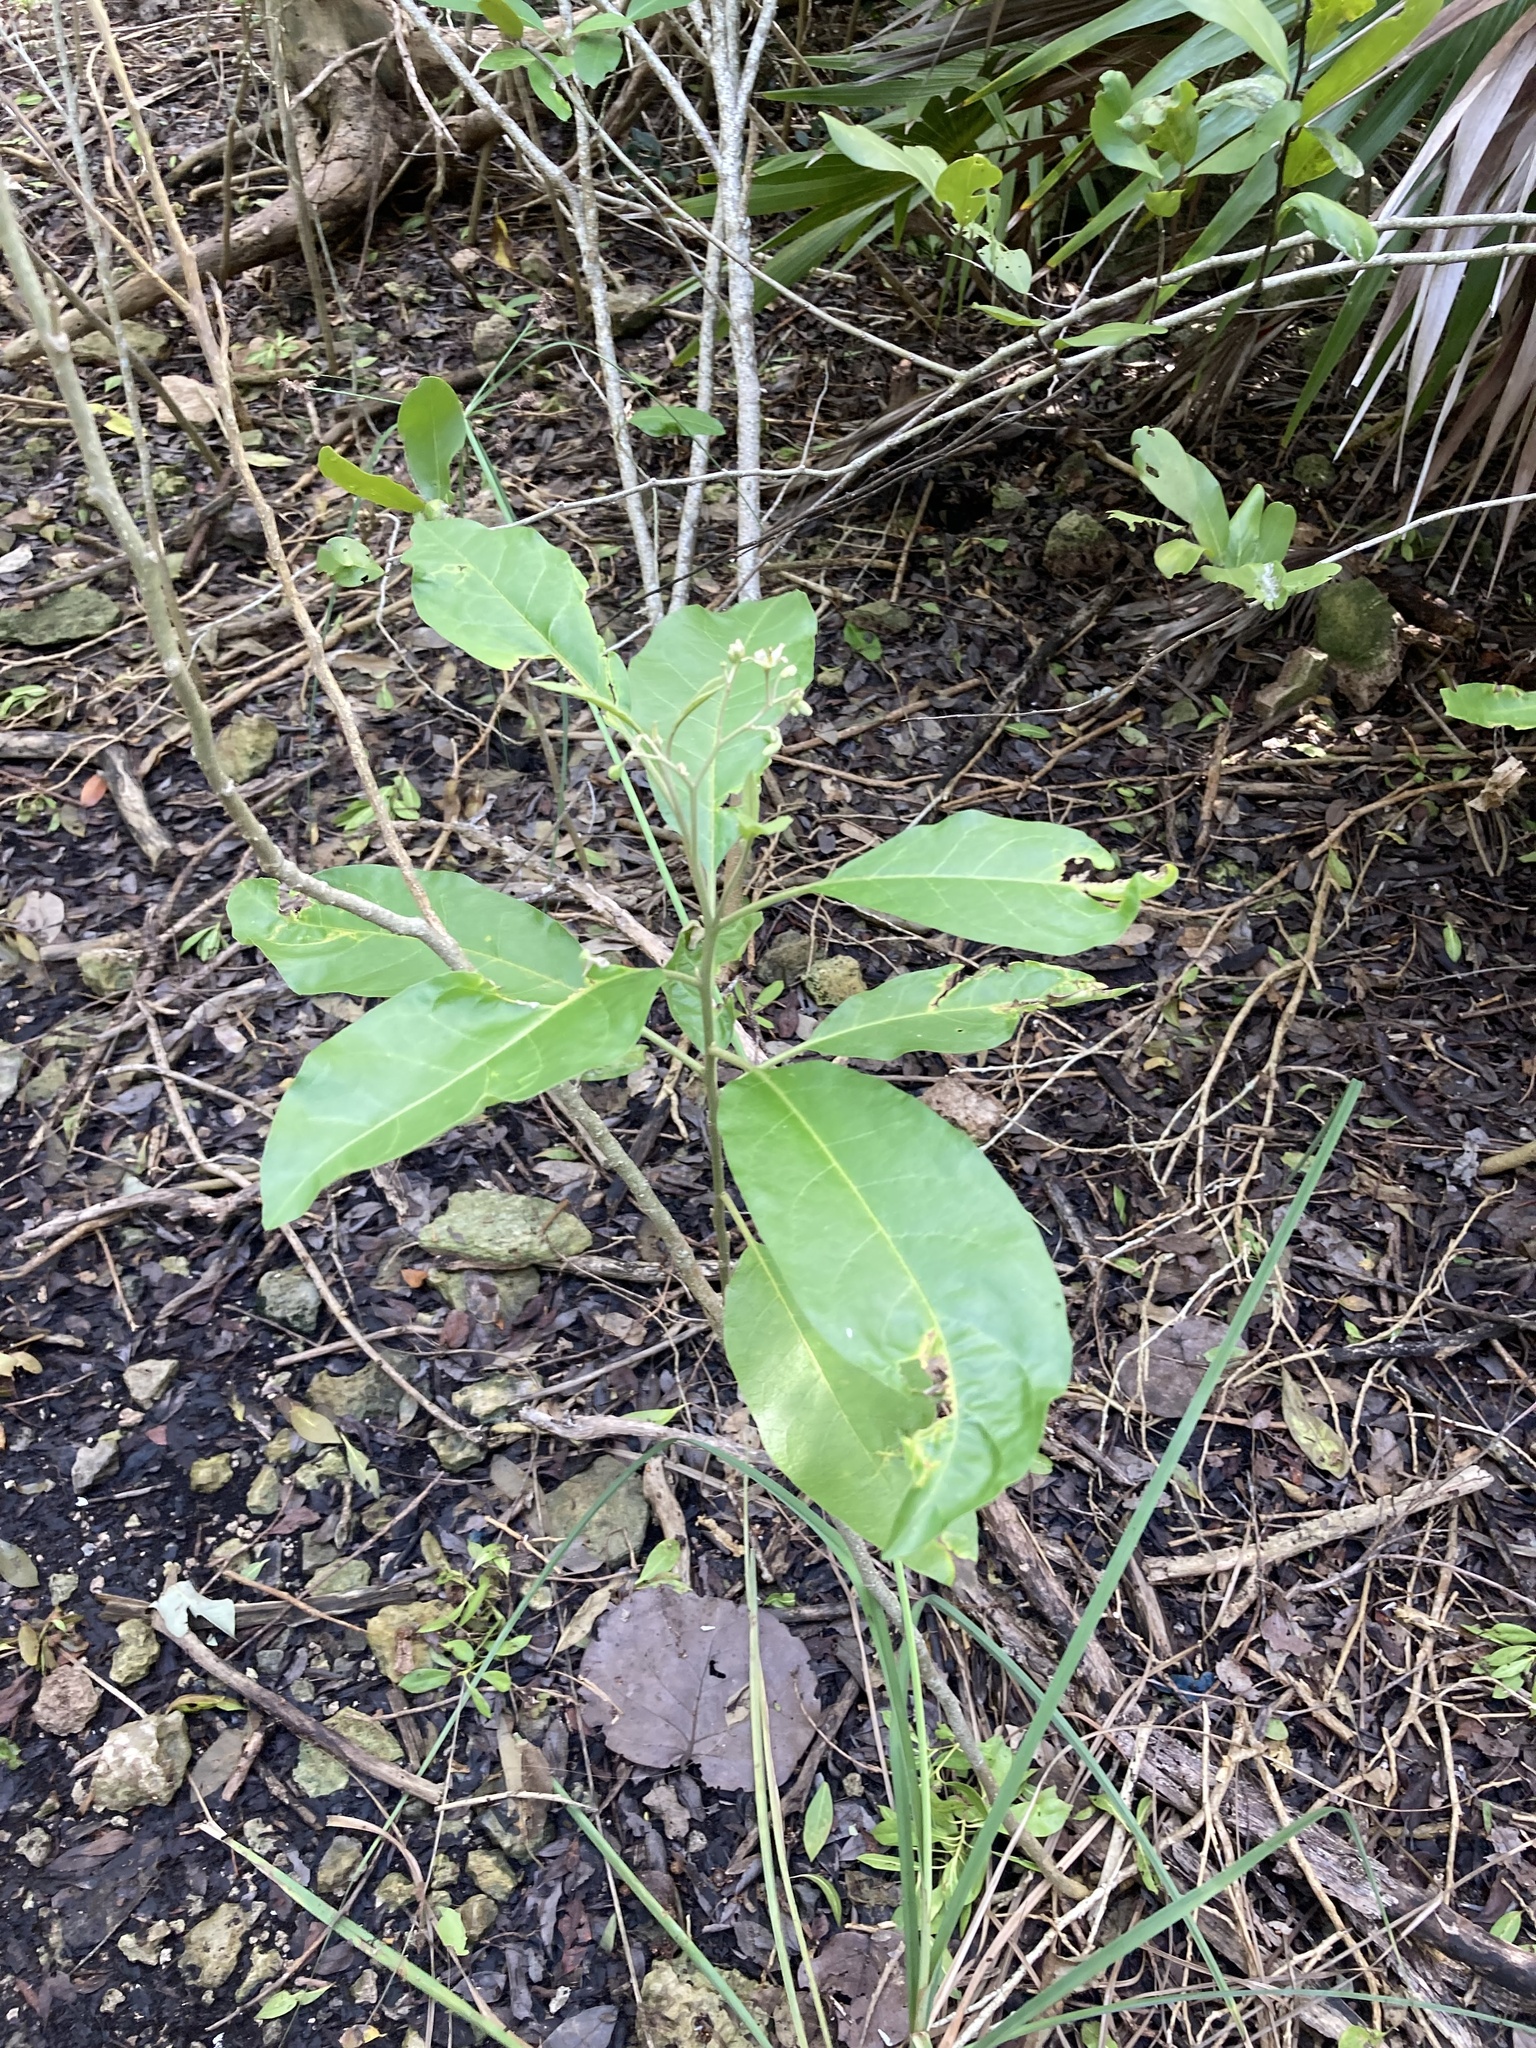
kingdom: Plantae
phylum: Tracheophyta
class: Magnoliopsida
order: Solanales
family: Solanaceae
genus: Solanum
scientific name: Solanum donianum
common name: Mullein nightshade
